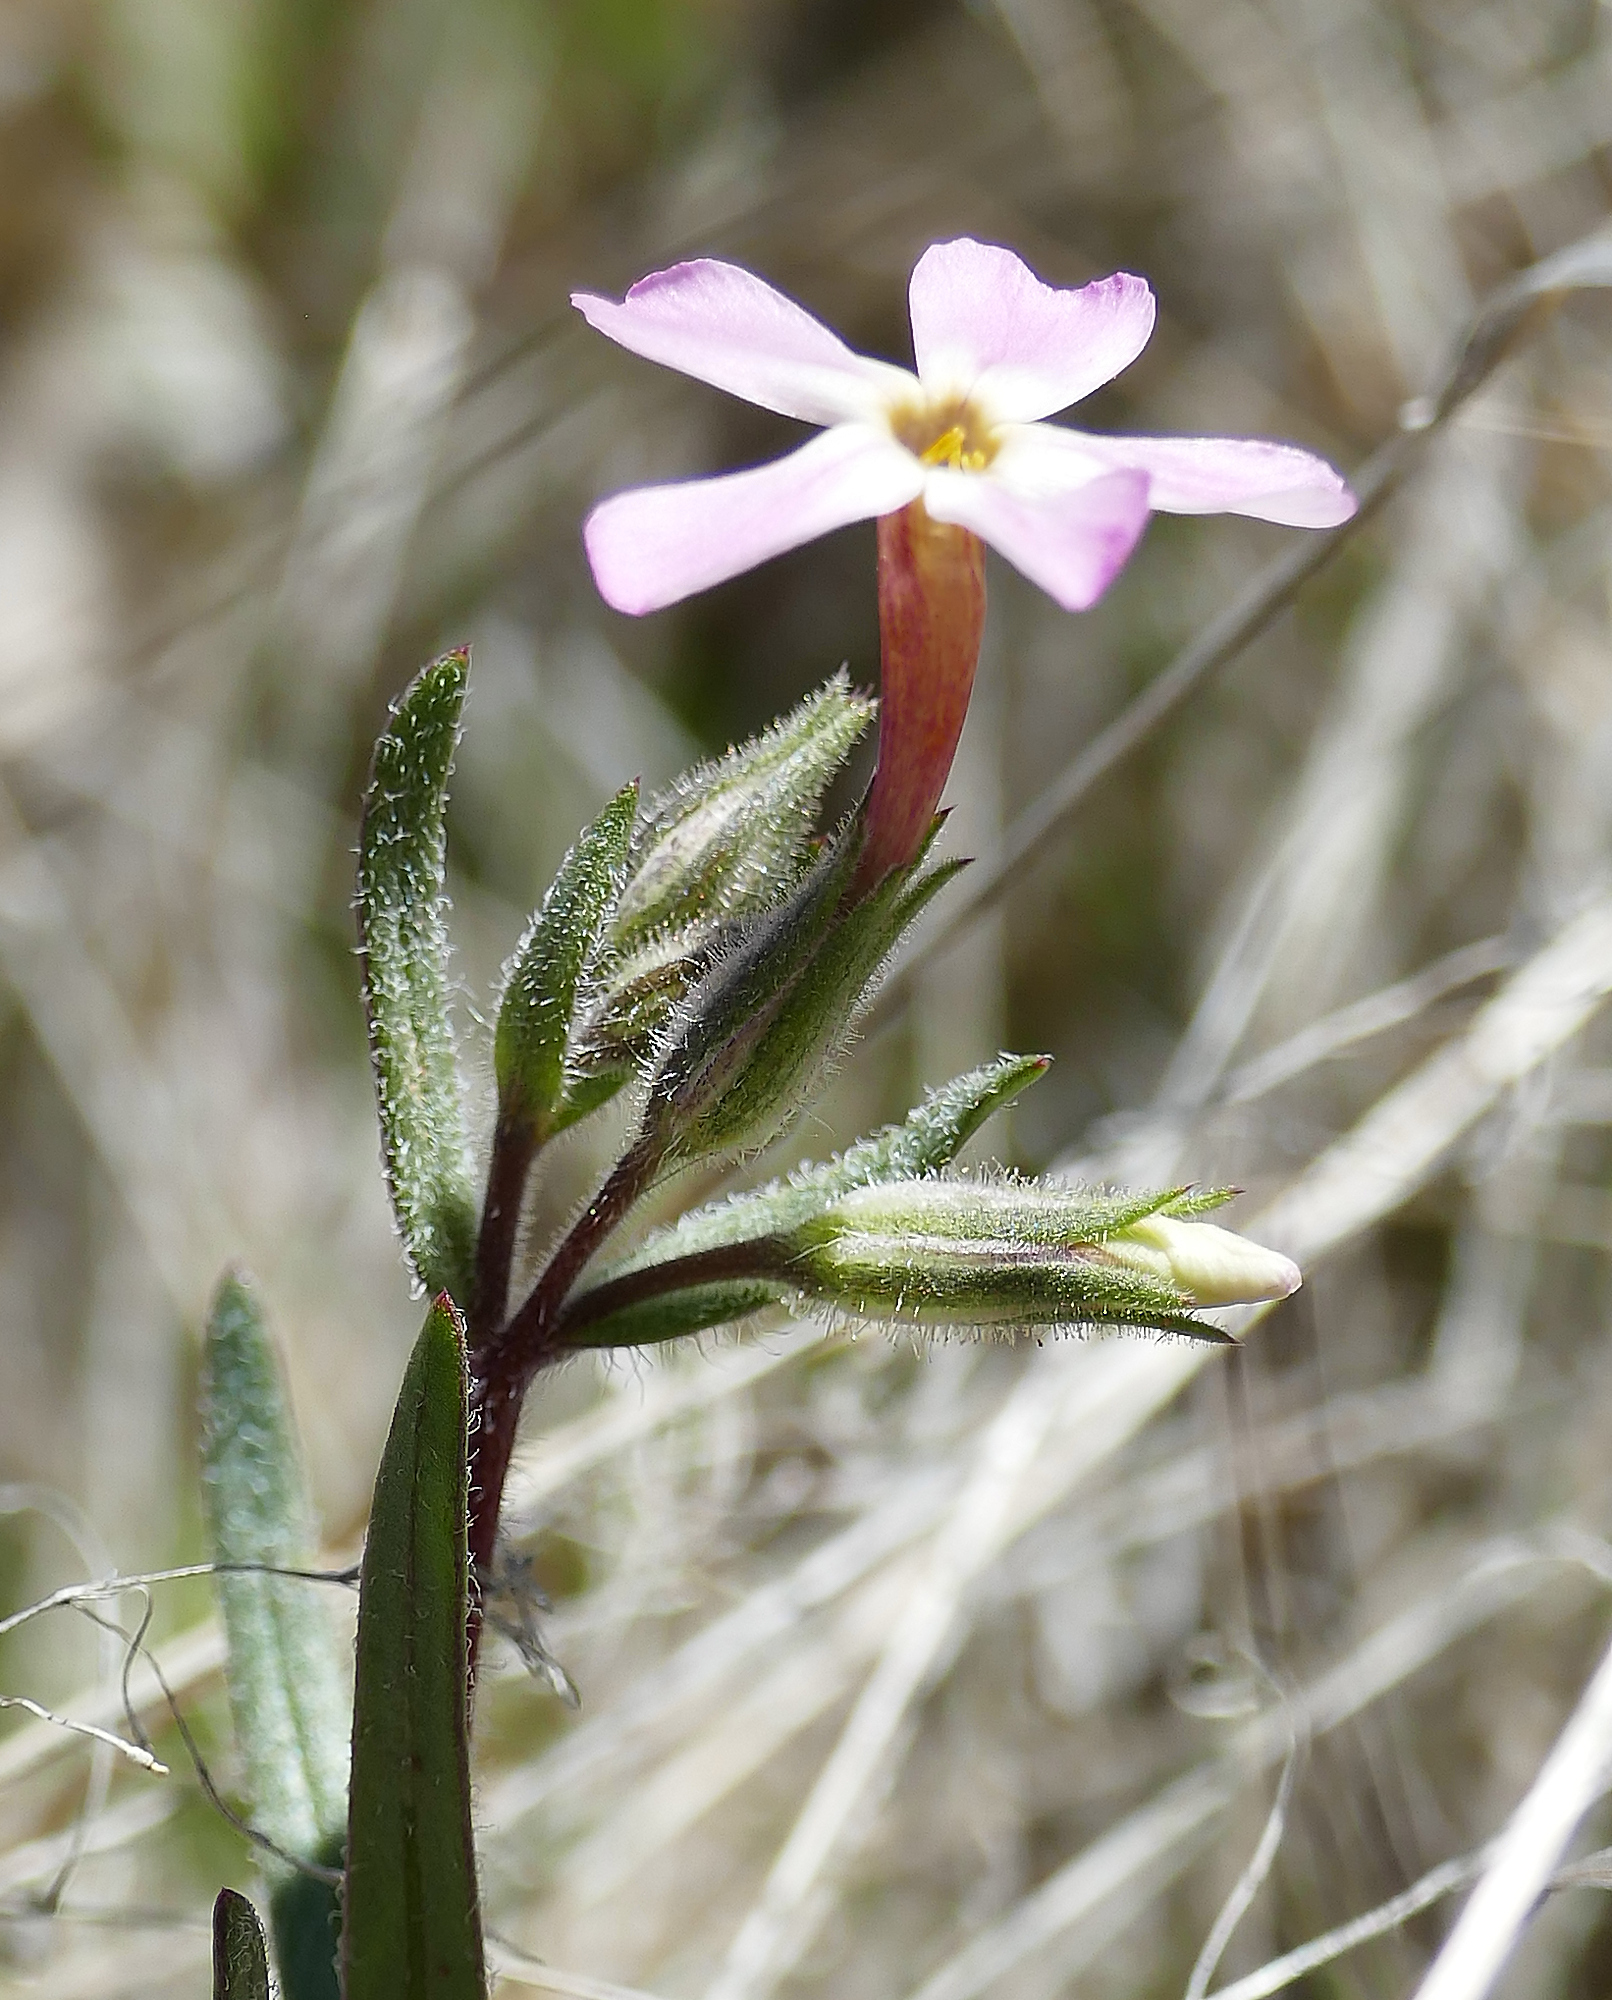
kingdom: Plantae
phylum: Tracheophyta
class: Magnoliopsida
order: Ericales
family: Polemoniaceae
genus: Phlox
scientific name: Phlox longifolia
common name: Longleaf phlox
